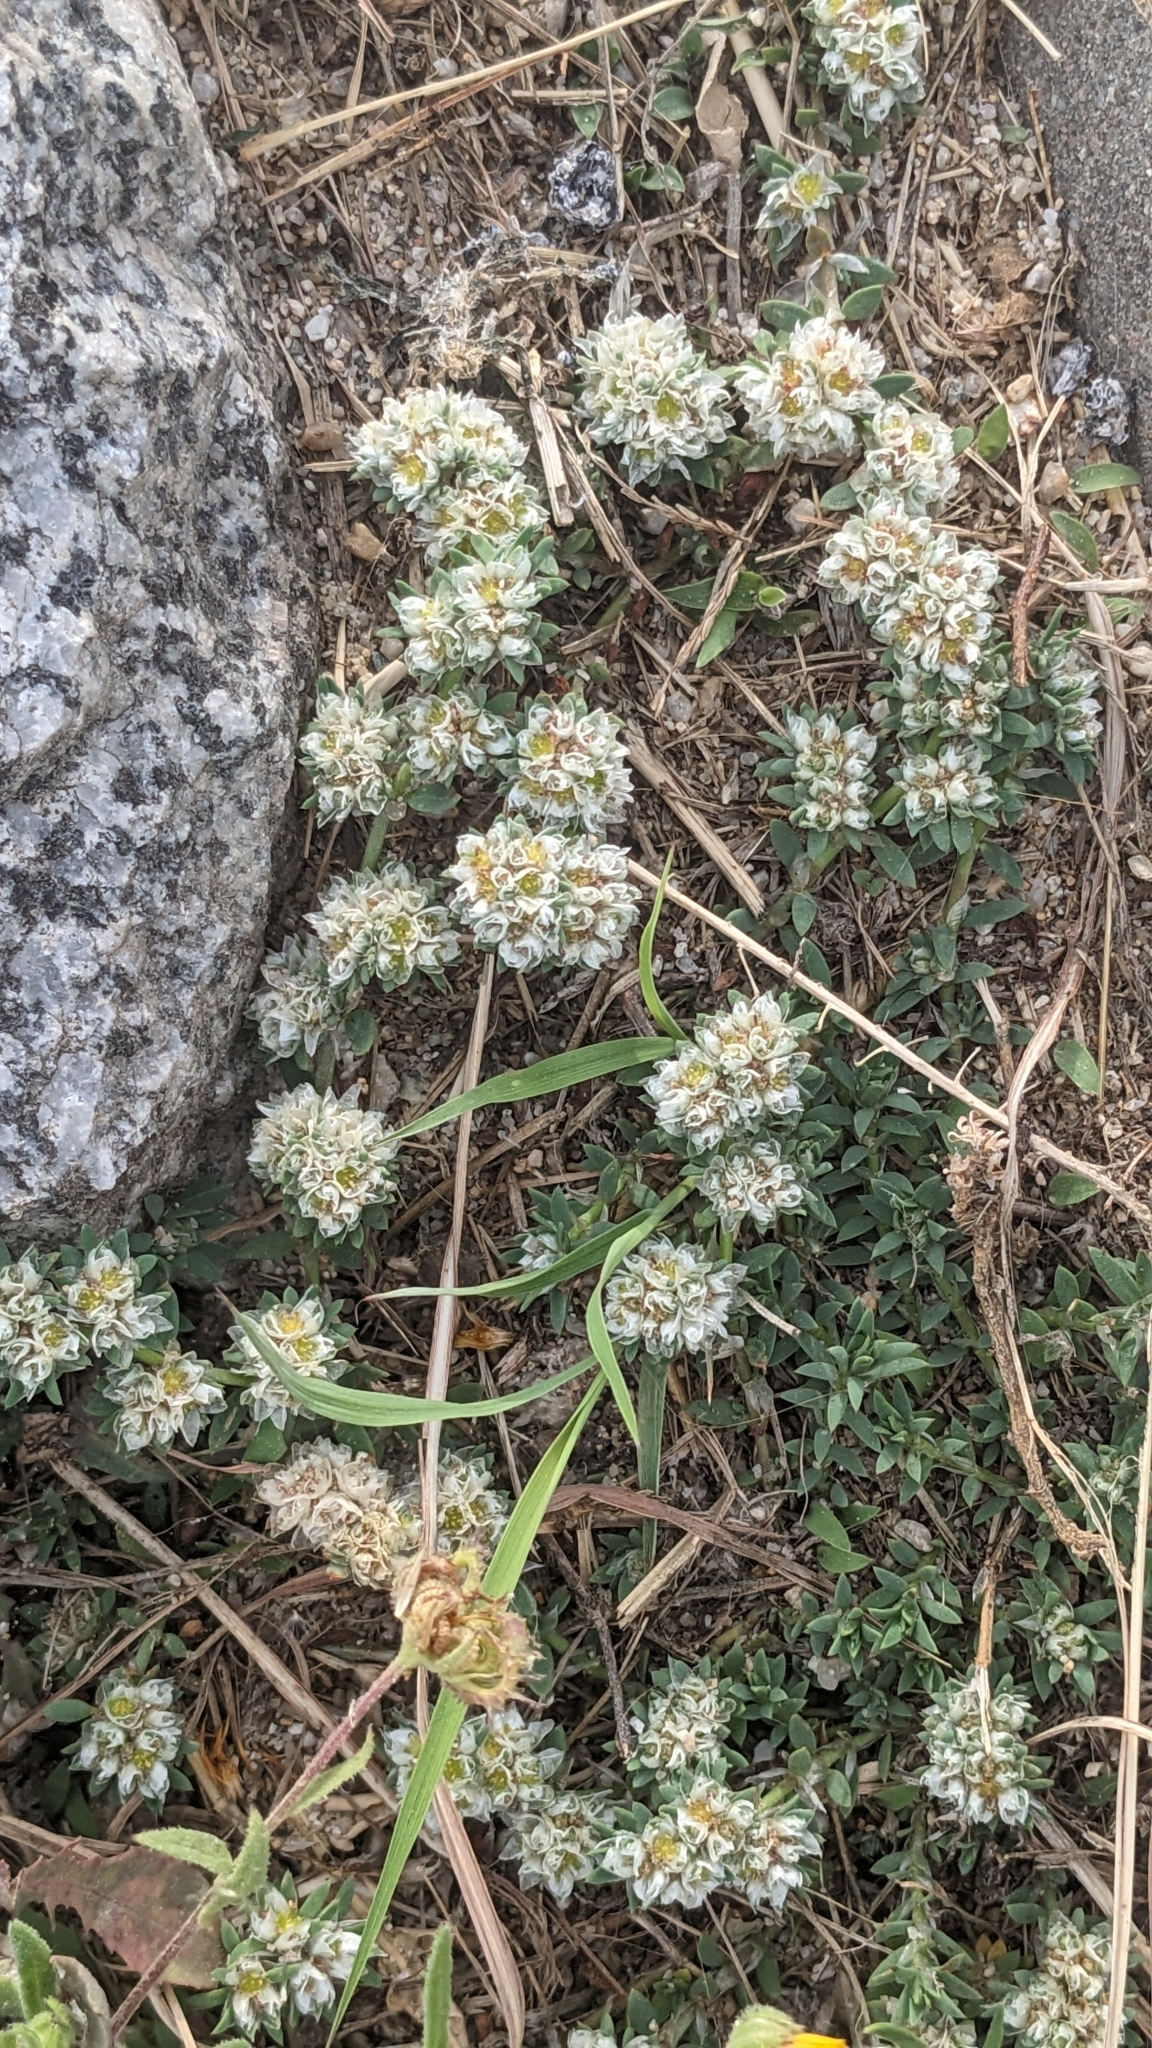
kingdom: Plantae
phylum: Tracheophyta
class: Magnoliopsida
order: Caryophyllales
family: Caryophyllaceae
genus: Paronychia
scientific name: Paronychia argentea
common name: Silver nailroot
